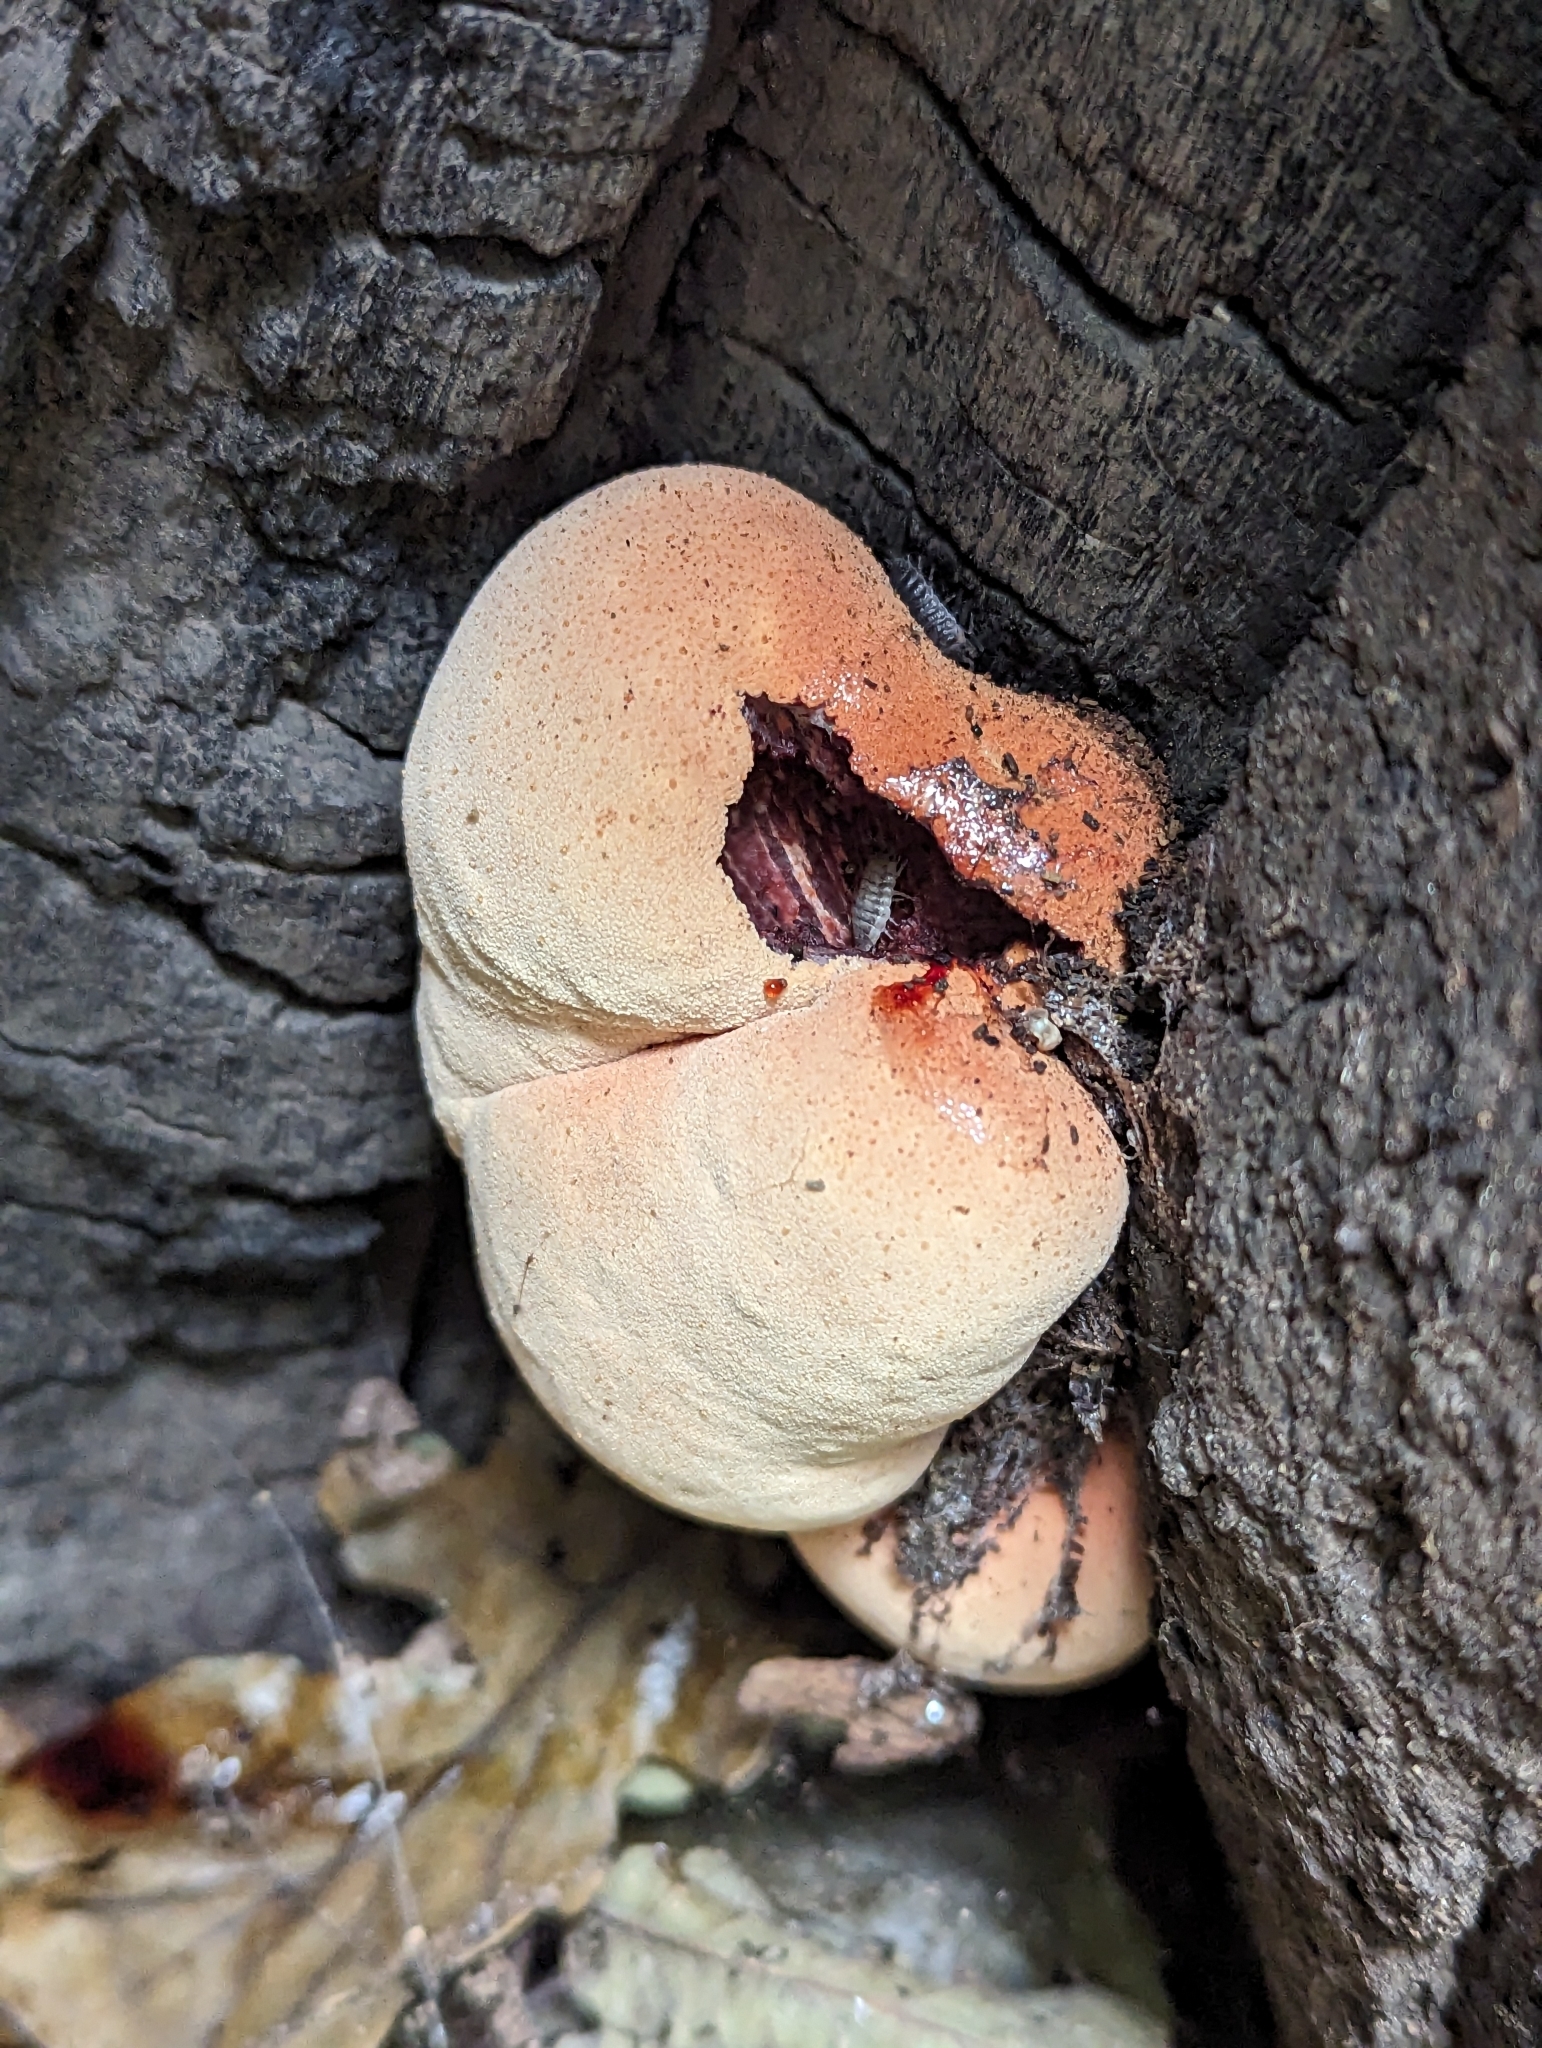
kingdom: Fungi
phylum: Basidiomycota
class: Agaricomycetes
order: Agaricales
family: Fistulinaceae
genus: Fistulina
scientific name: Fistulina hepatica
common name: Beef-steak fungus
